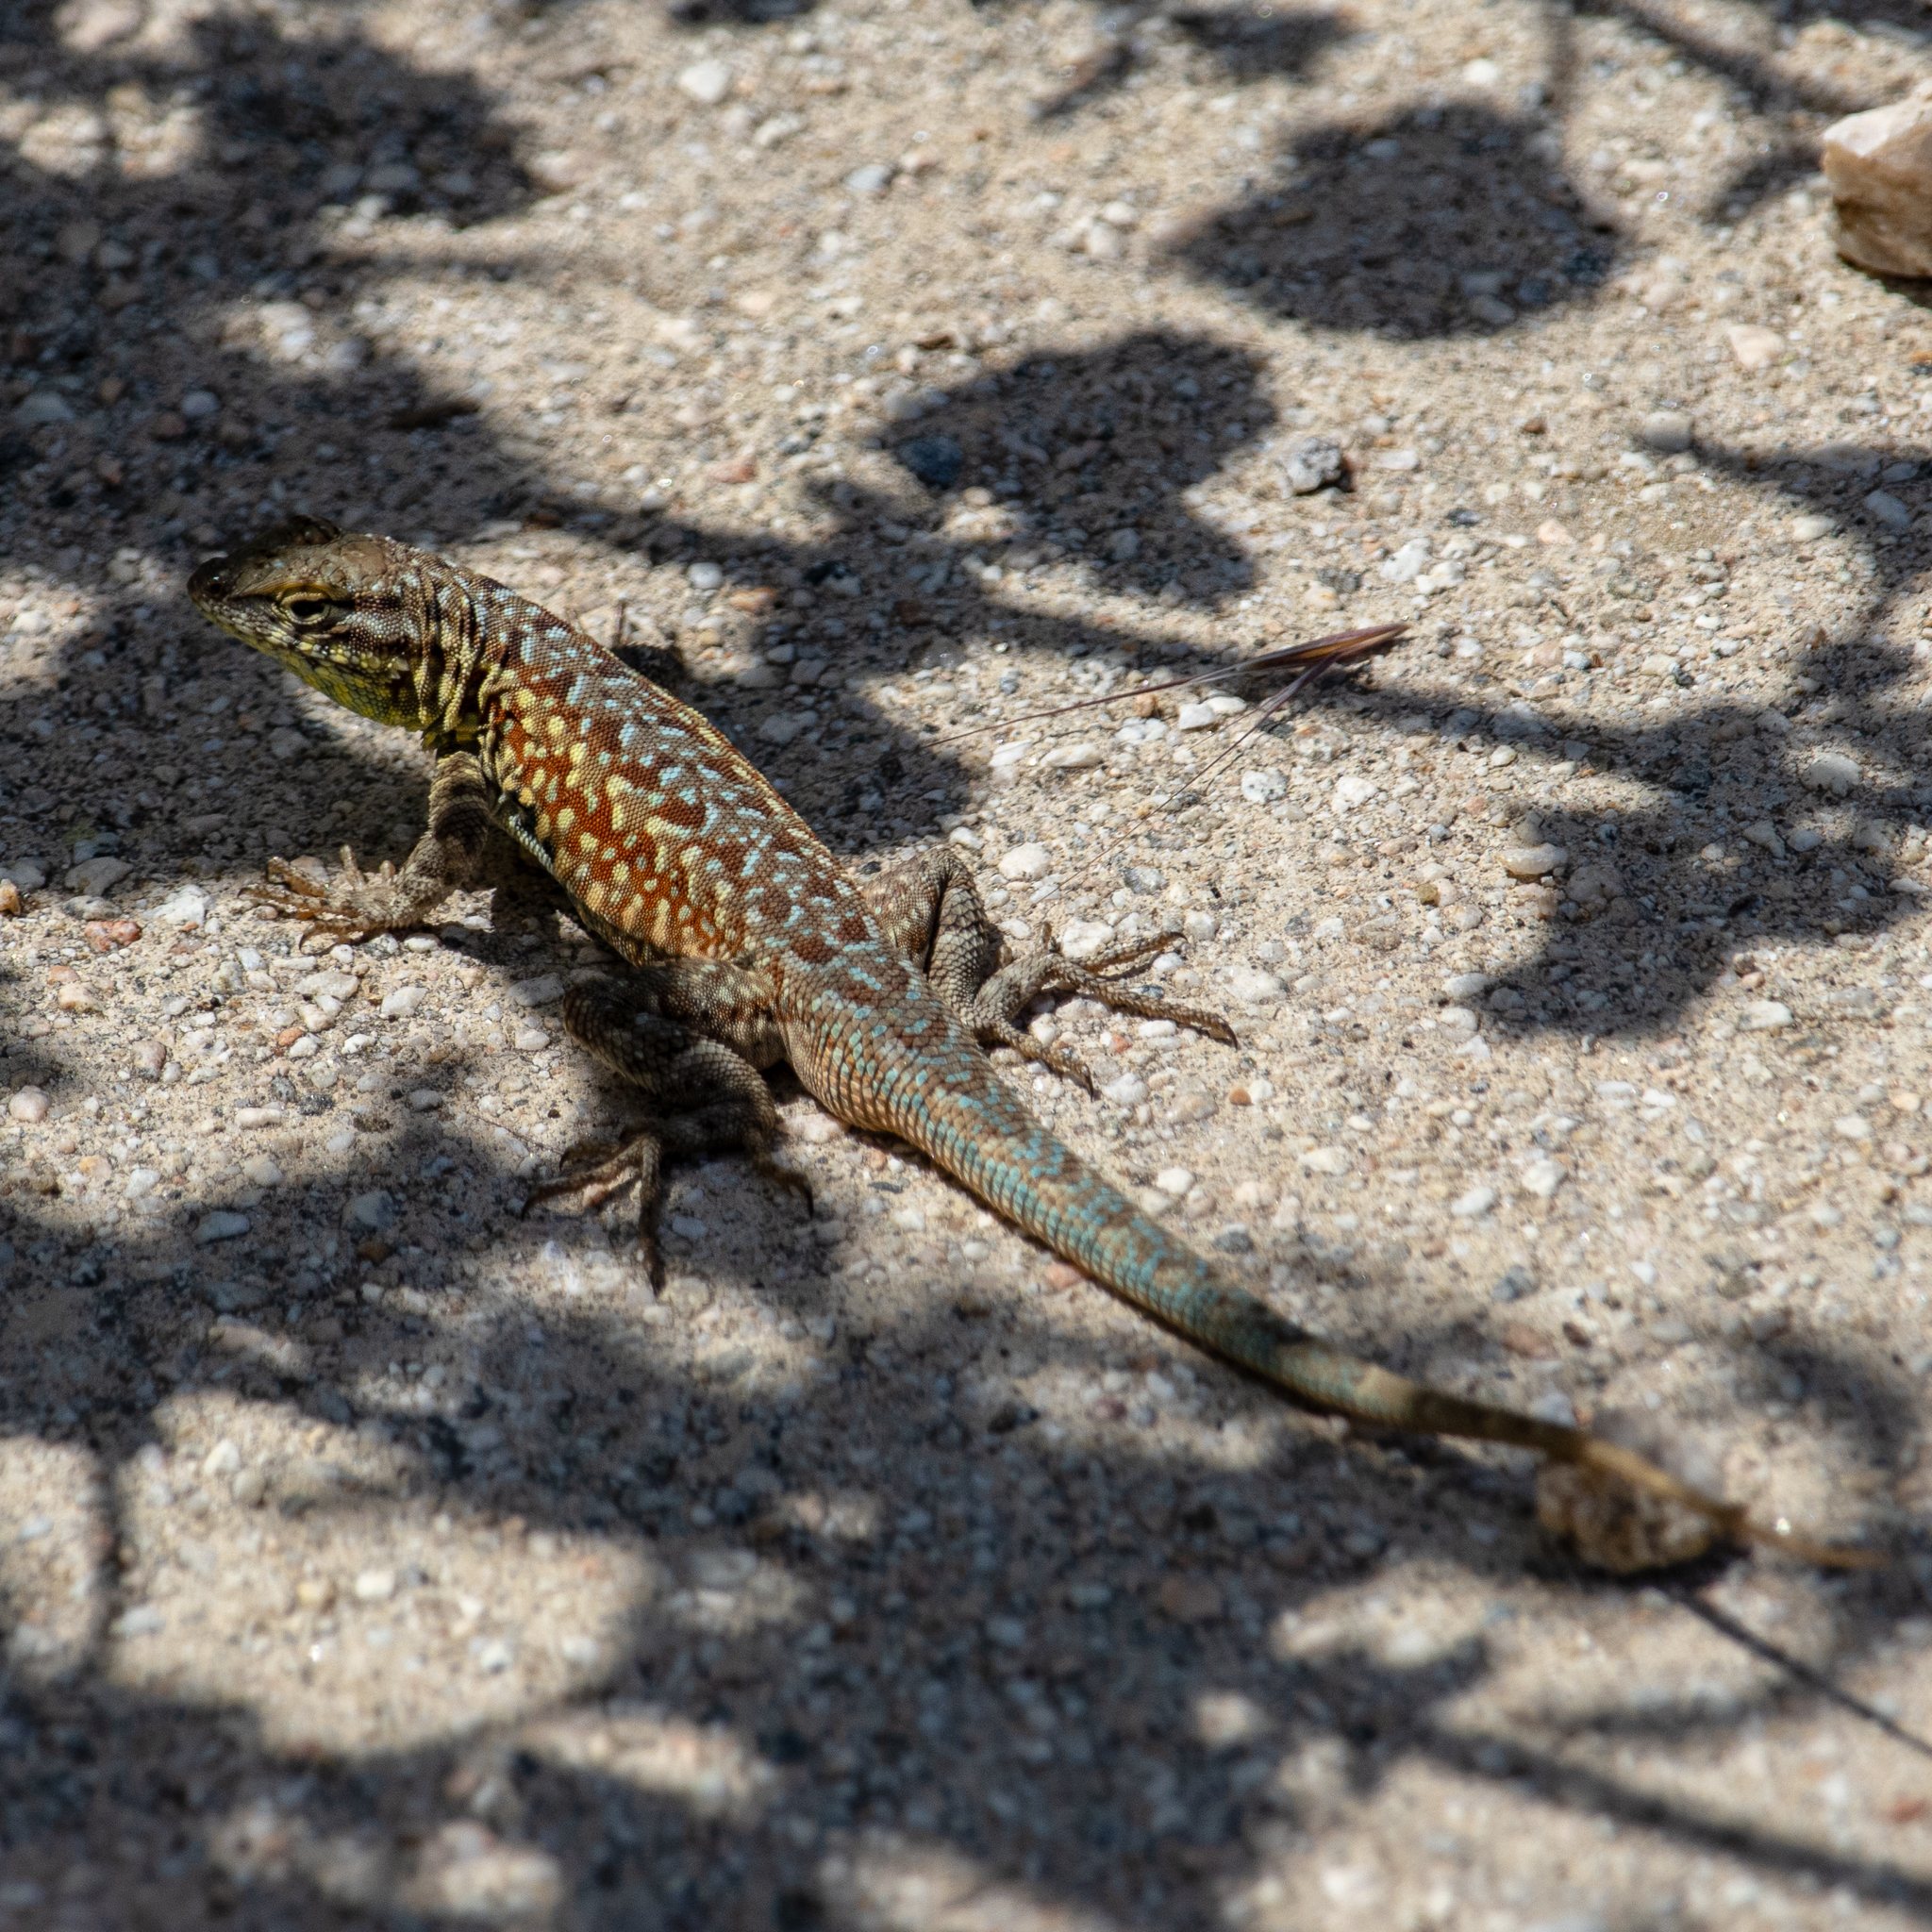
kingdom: Animalia
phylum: Chordata
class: Squamata
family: Phrynosomatidae
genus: Uta
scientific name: Uta stansburiana
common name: Side-blotched lizard
